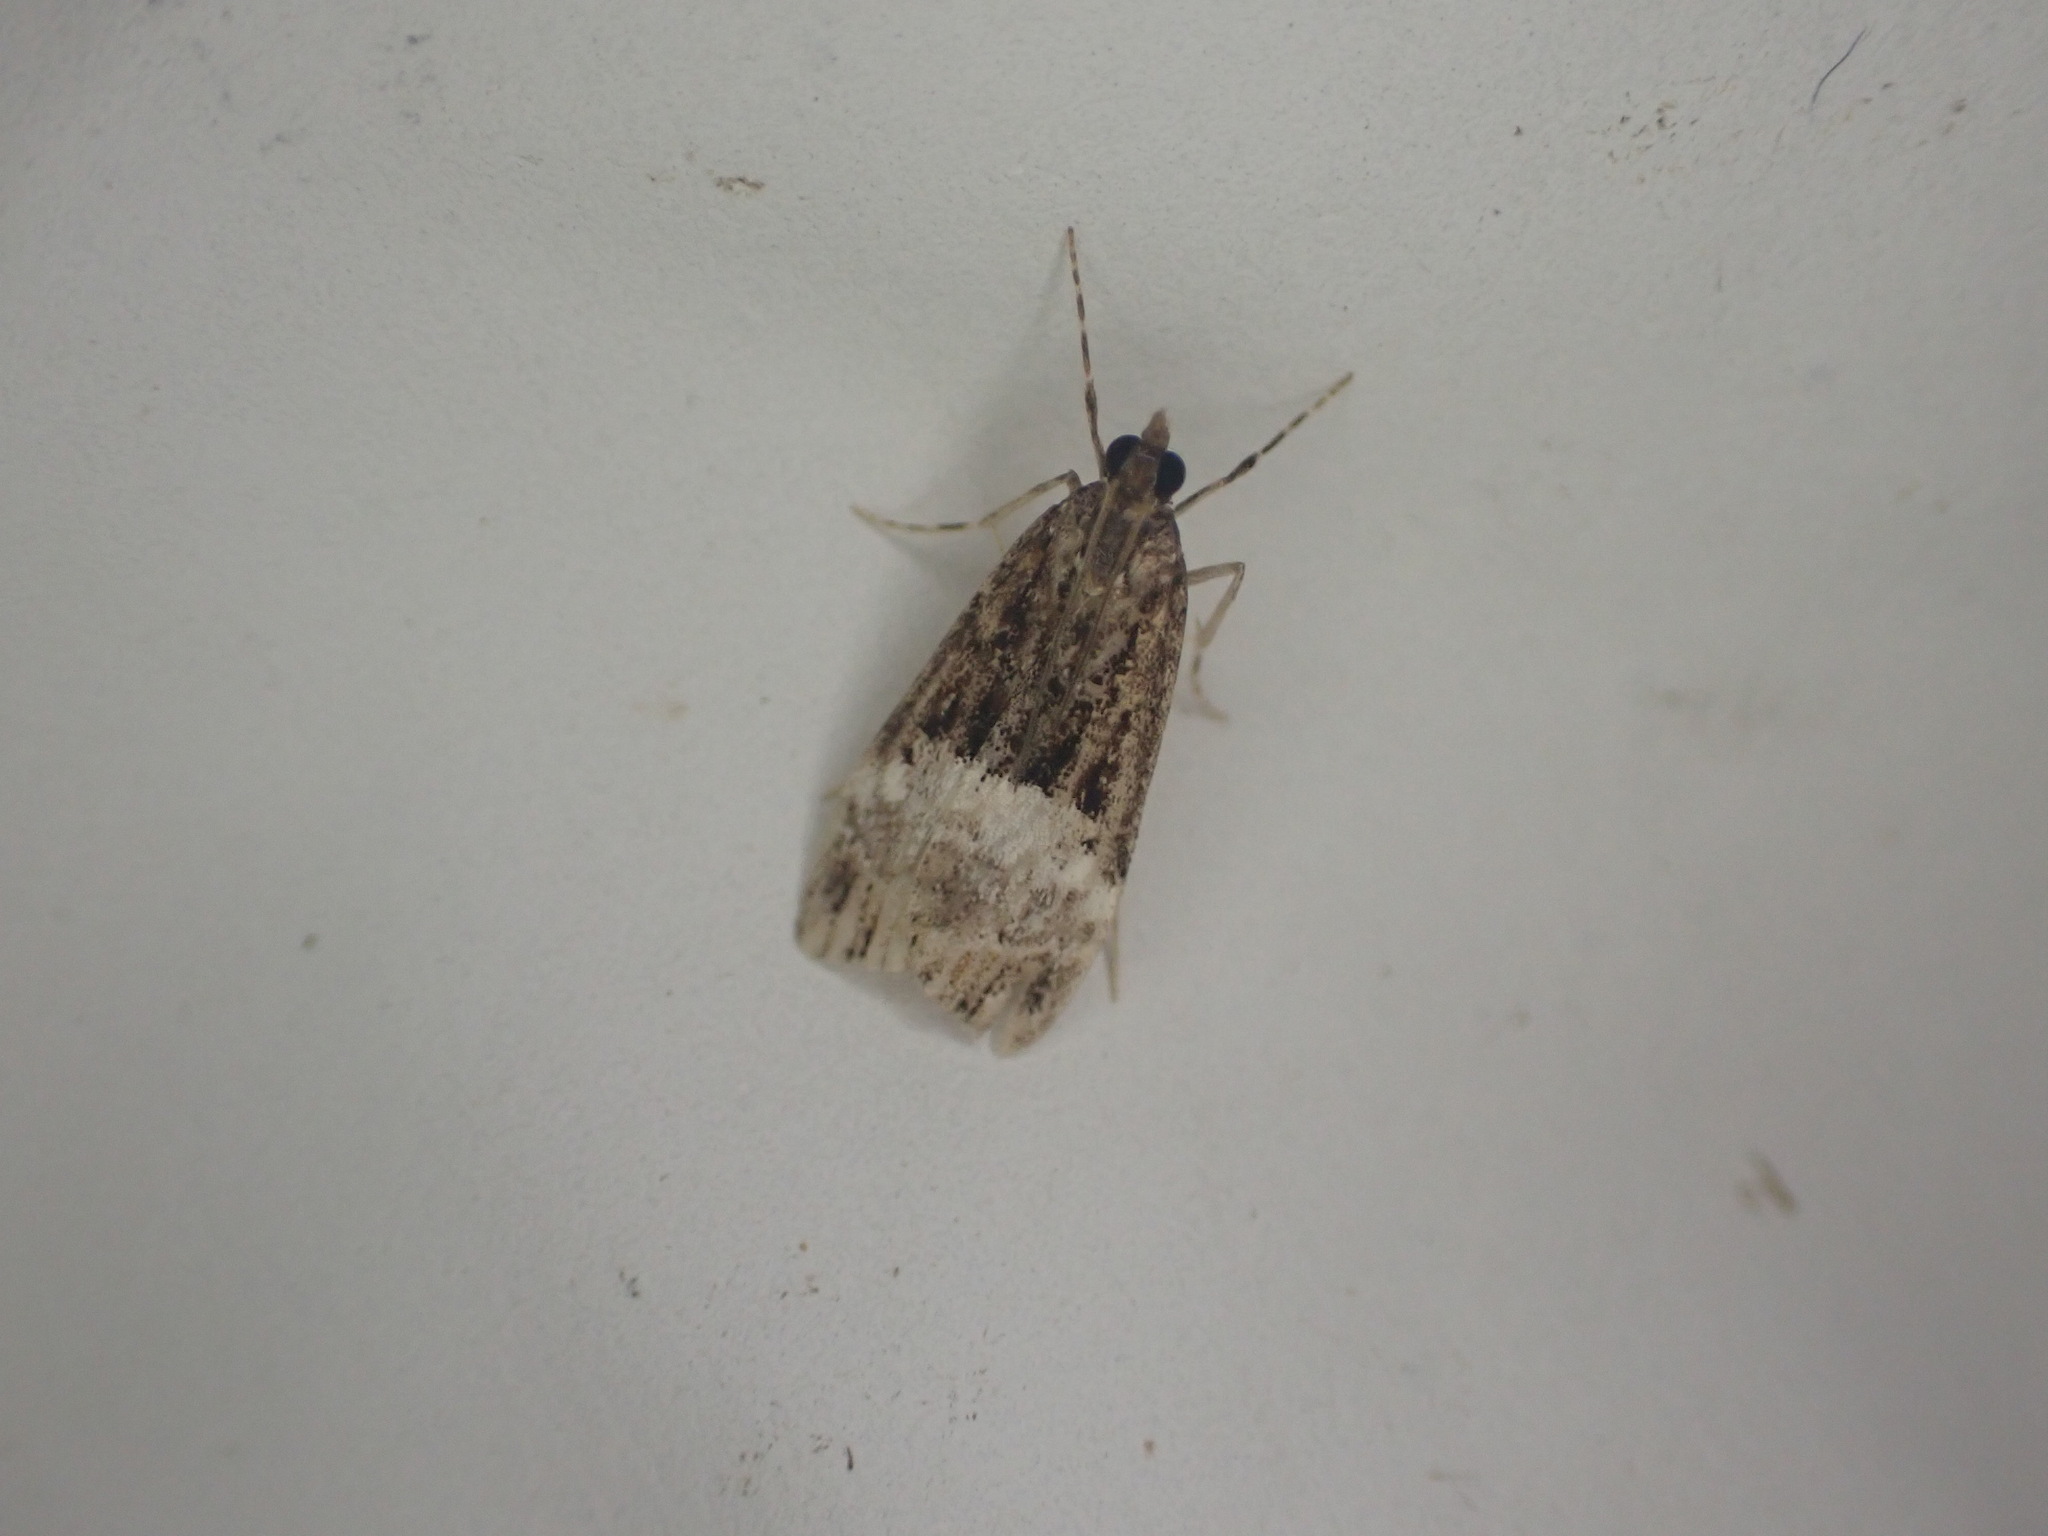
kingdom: Animalia
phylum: Arthropoda
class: Insecta
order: Lepidoptera
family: Crambidae
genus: Scoparia
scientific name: Scoparia minusculalis
